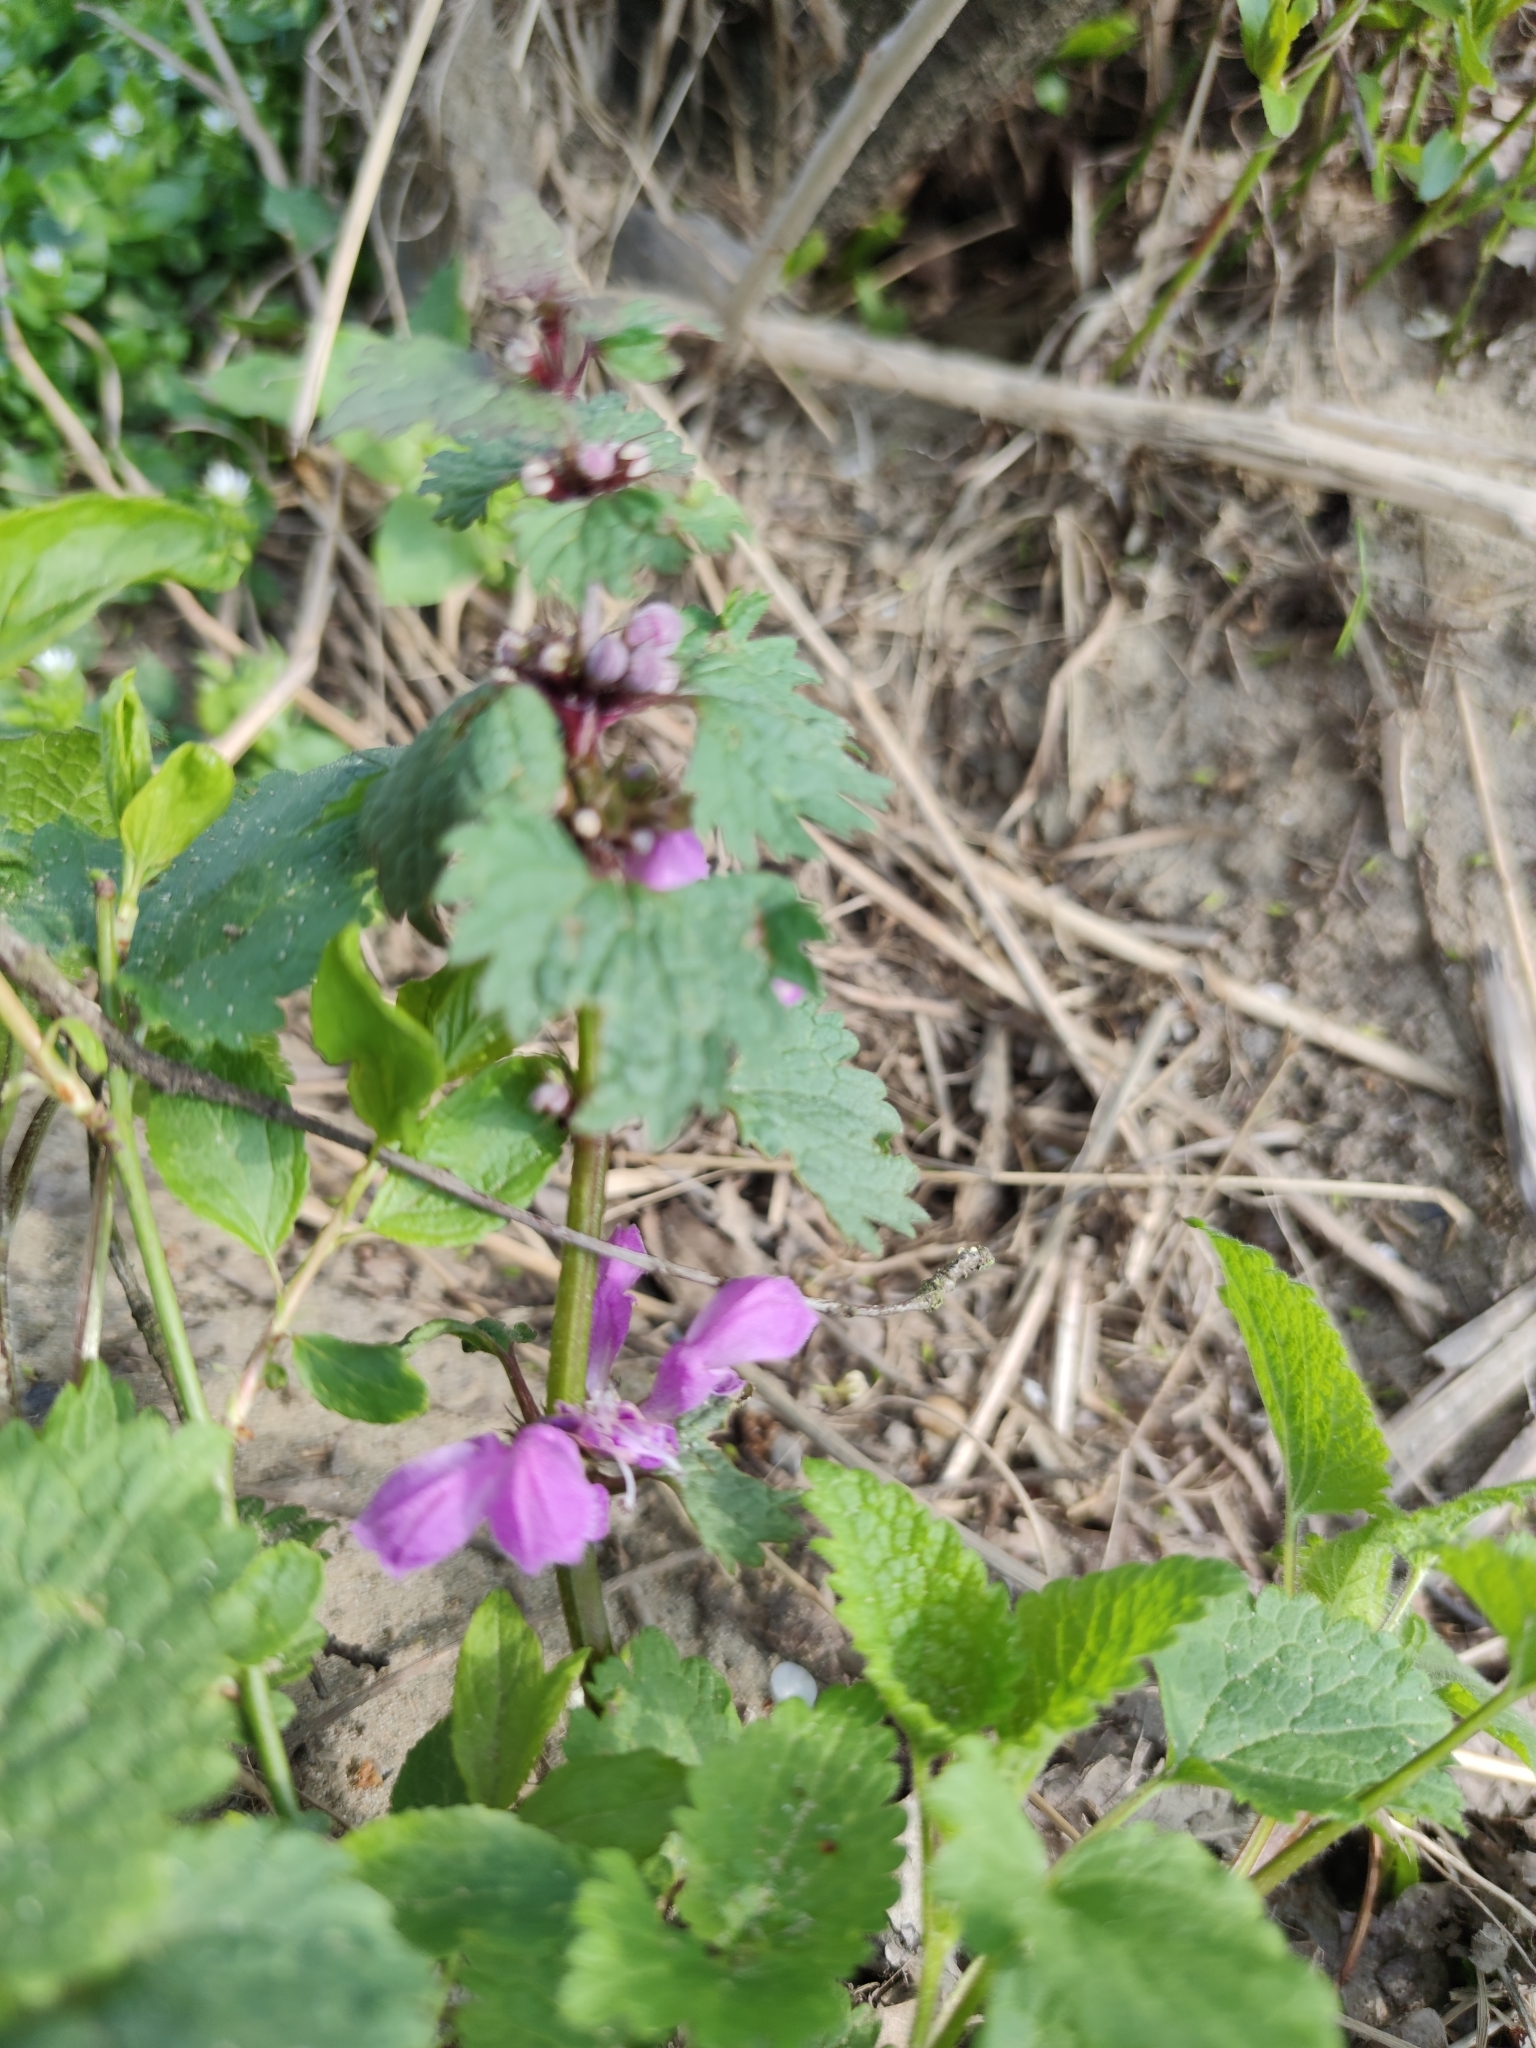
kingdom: Plantae
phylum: Tracheophyta
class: Magnoliopsida
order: Lamiales
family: Lamiaceae
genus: Lamium
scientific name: Lamium maculatum
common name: Spotted dead-nettle
